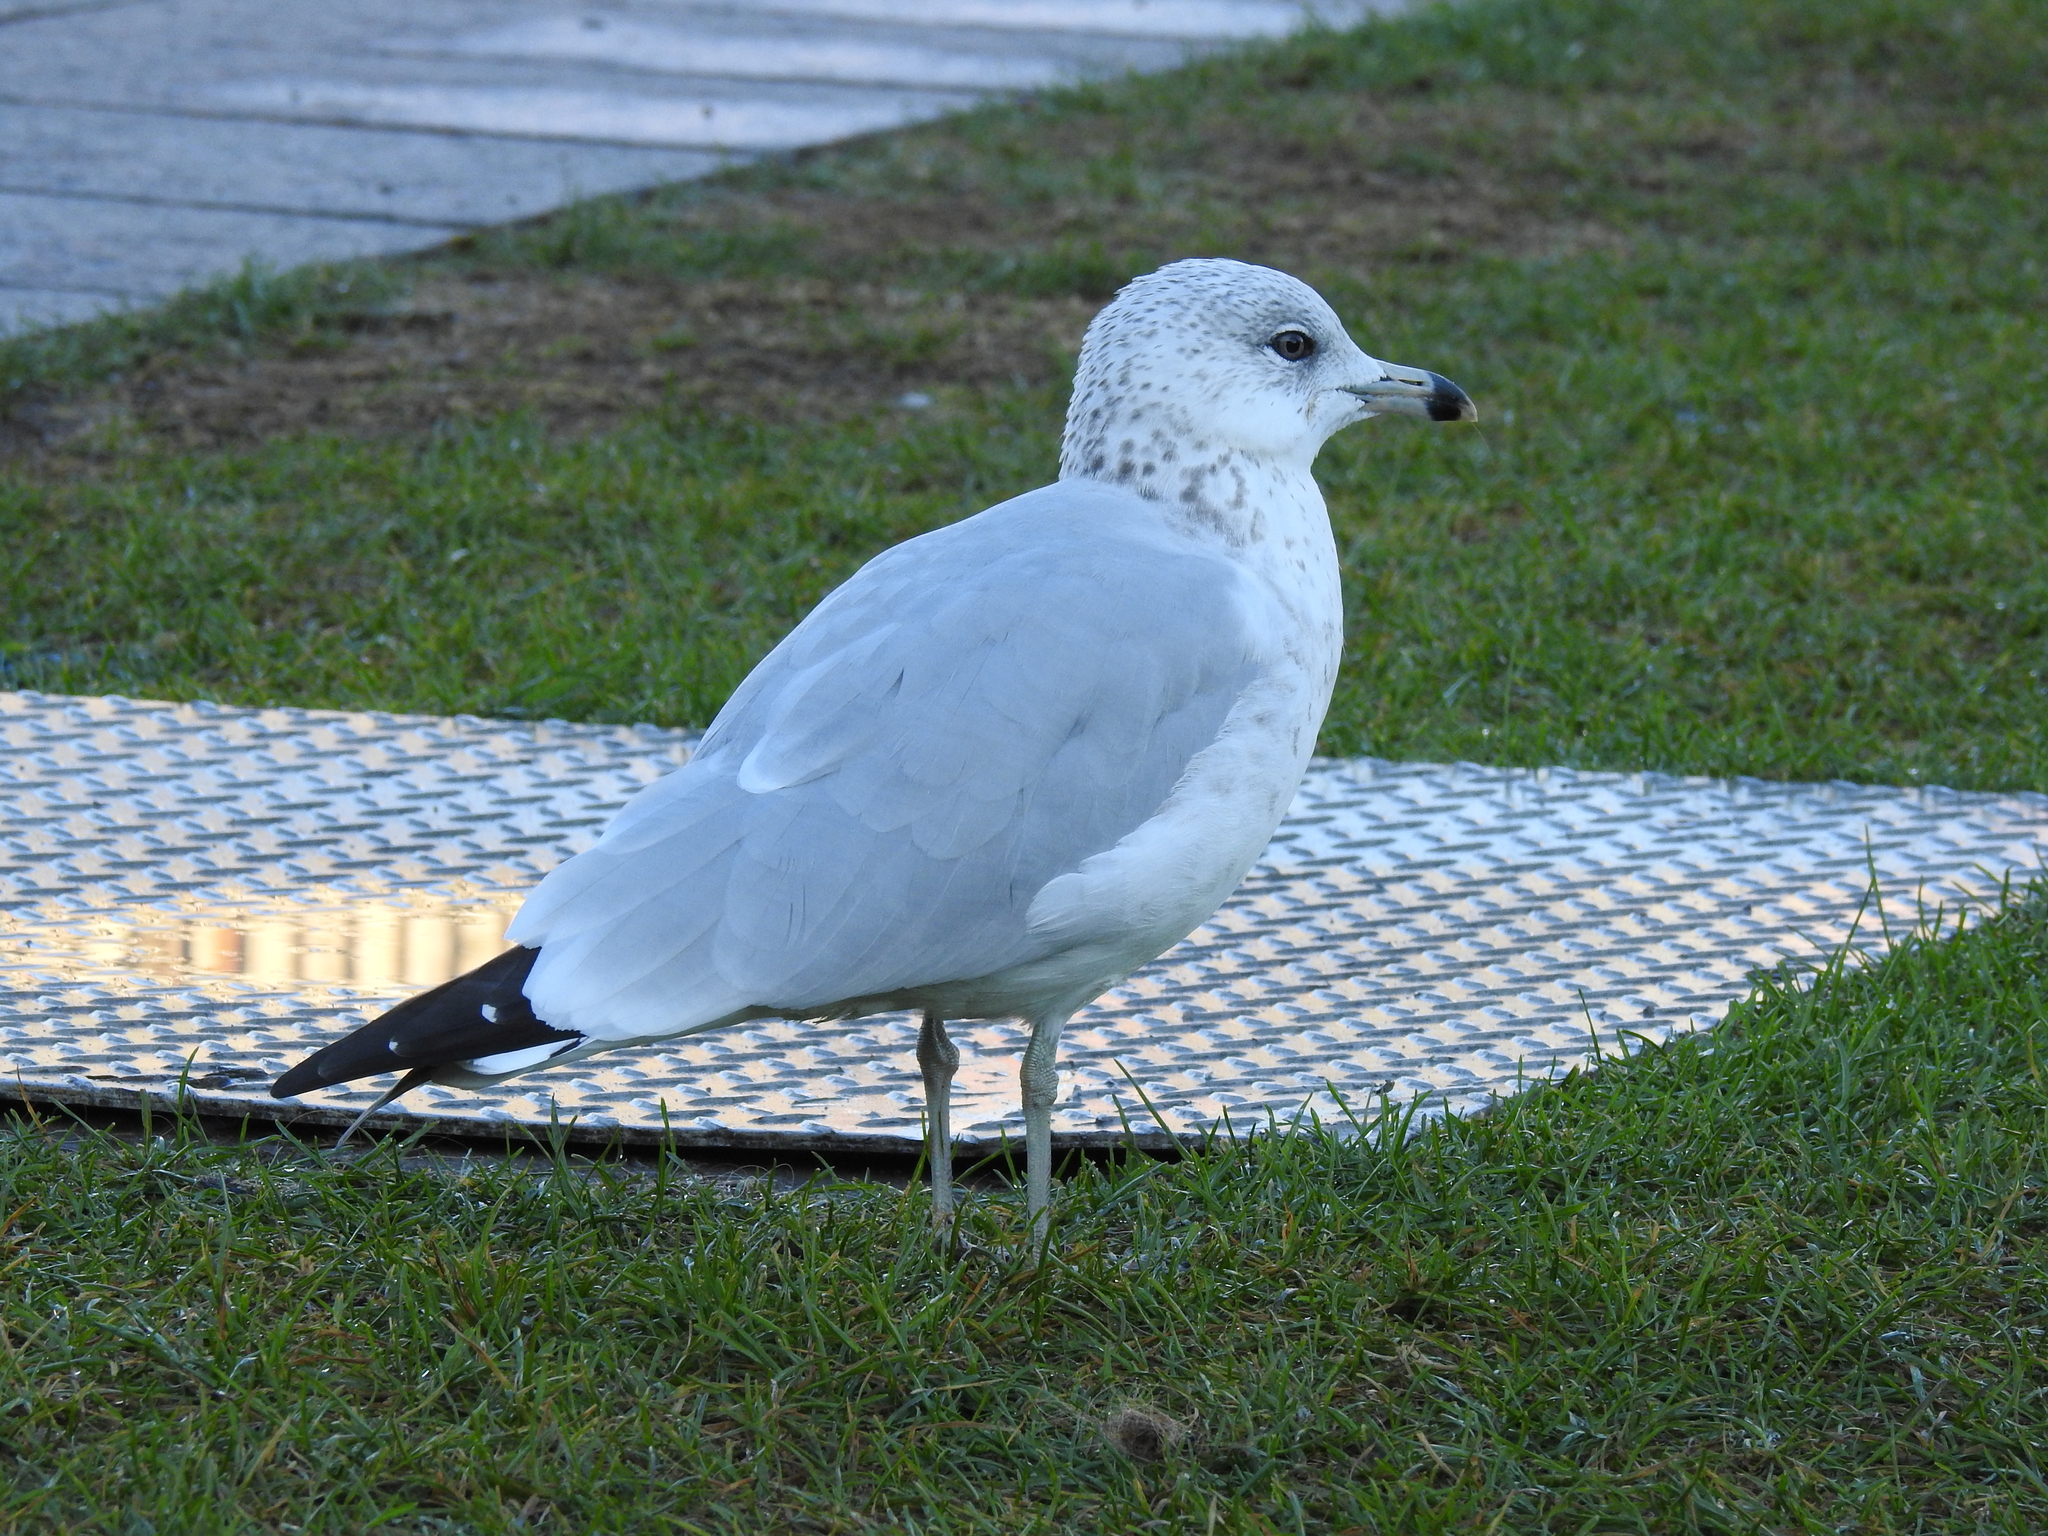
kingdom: Animalia
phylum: Chordata
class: Aves
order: Charadriiformes
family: Laridae
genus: Larus
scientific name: Larus delawarensis
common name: Ring-billed gull
